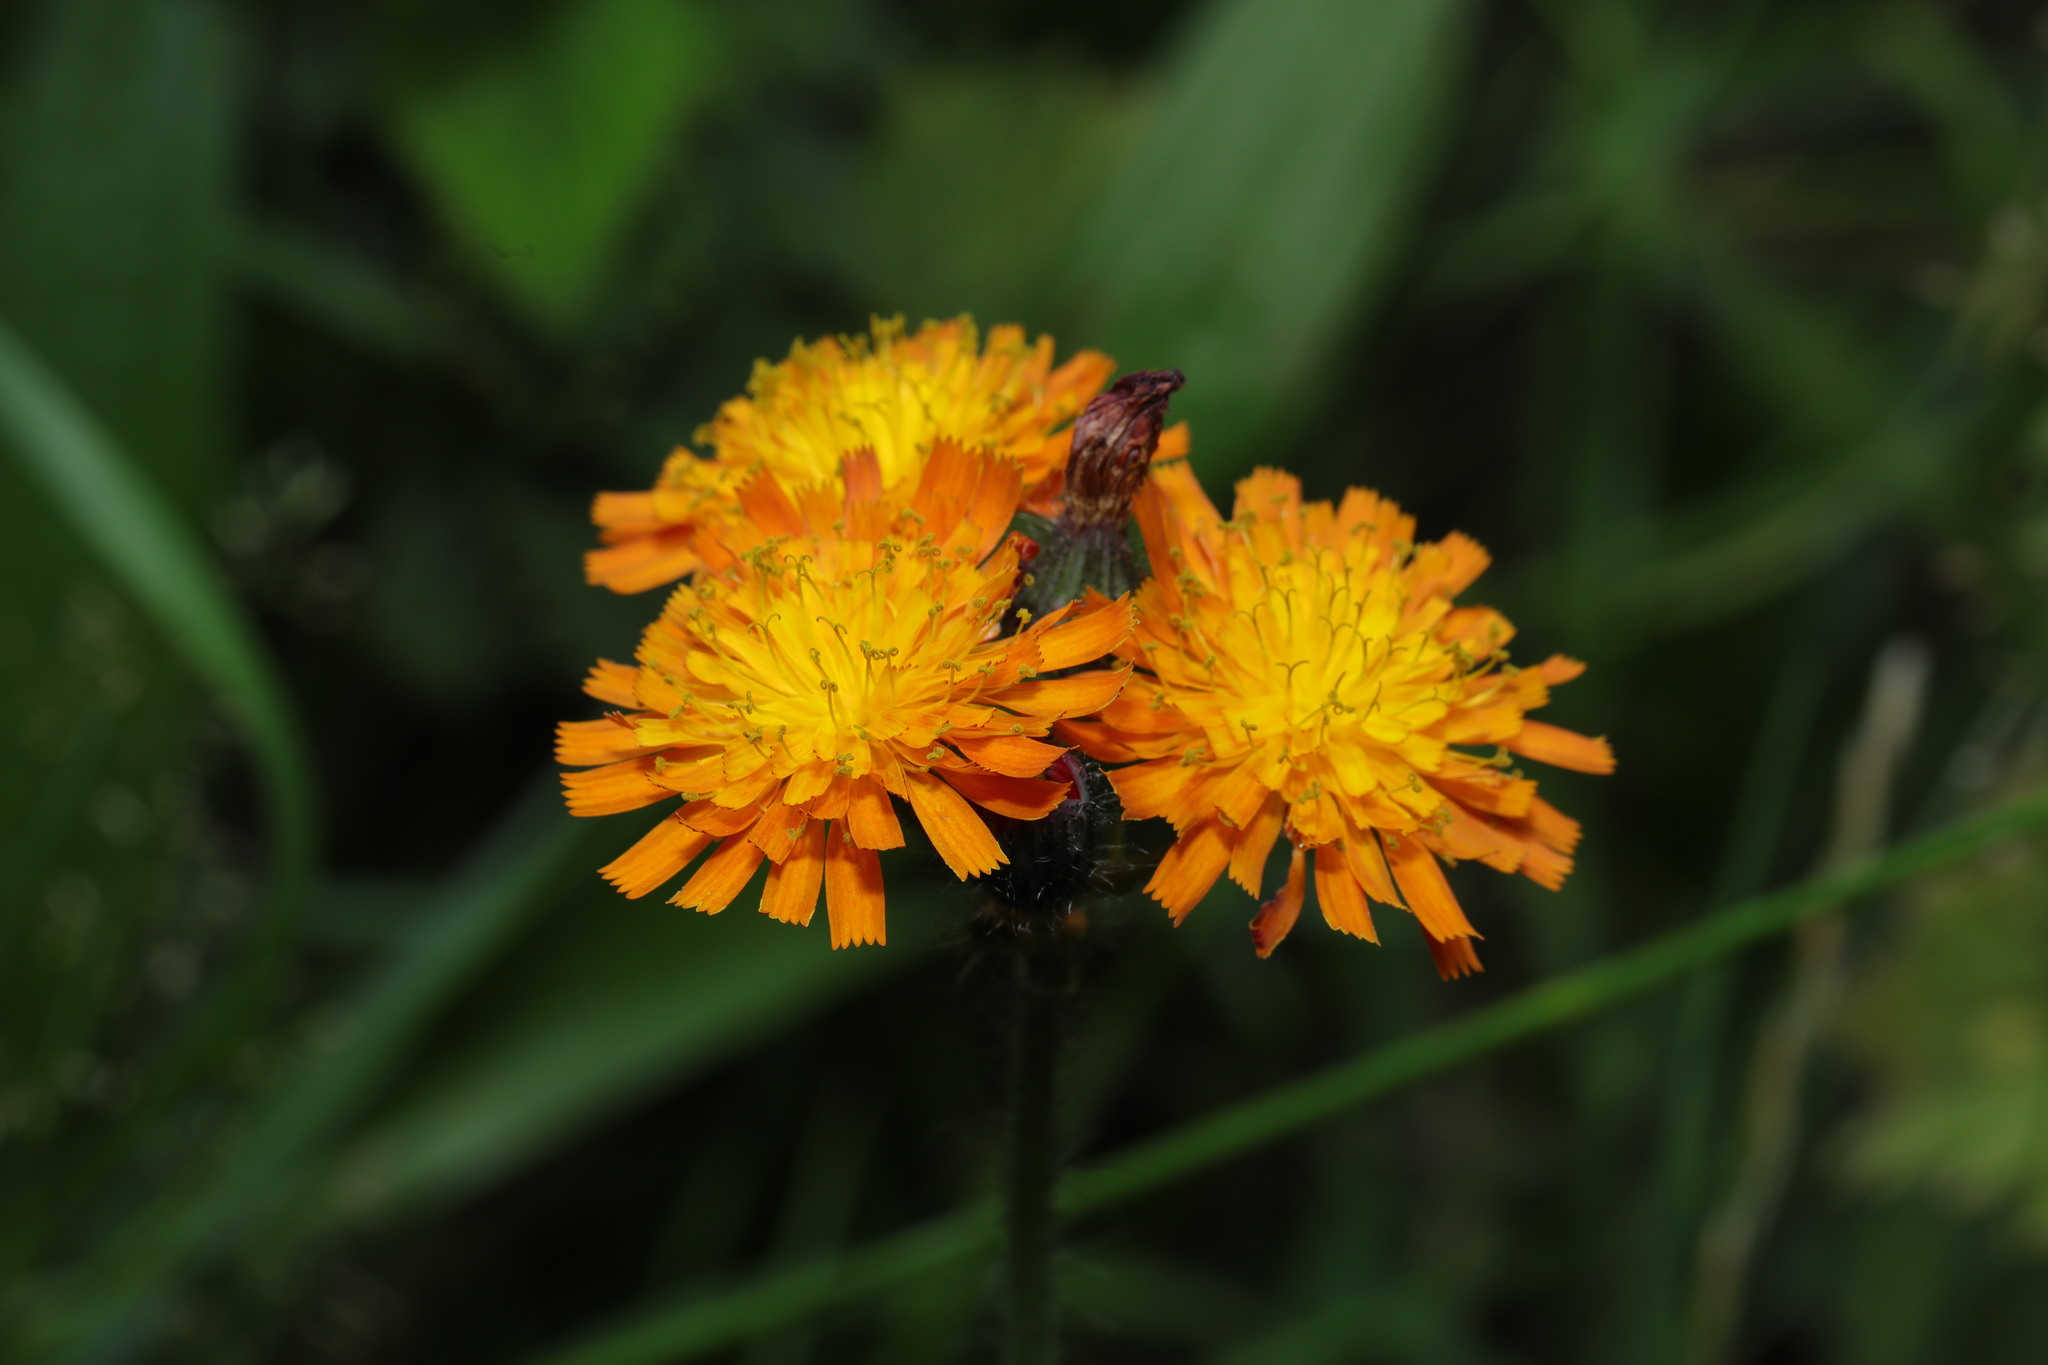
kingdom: Plantae
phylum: Tracheophyta
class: Magnoliopsida
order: Asterales
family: Asteraceae
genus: Pilosella
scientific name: Pilosella aurantiaca
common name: Fox-and-cubs
